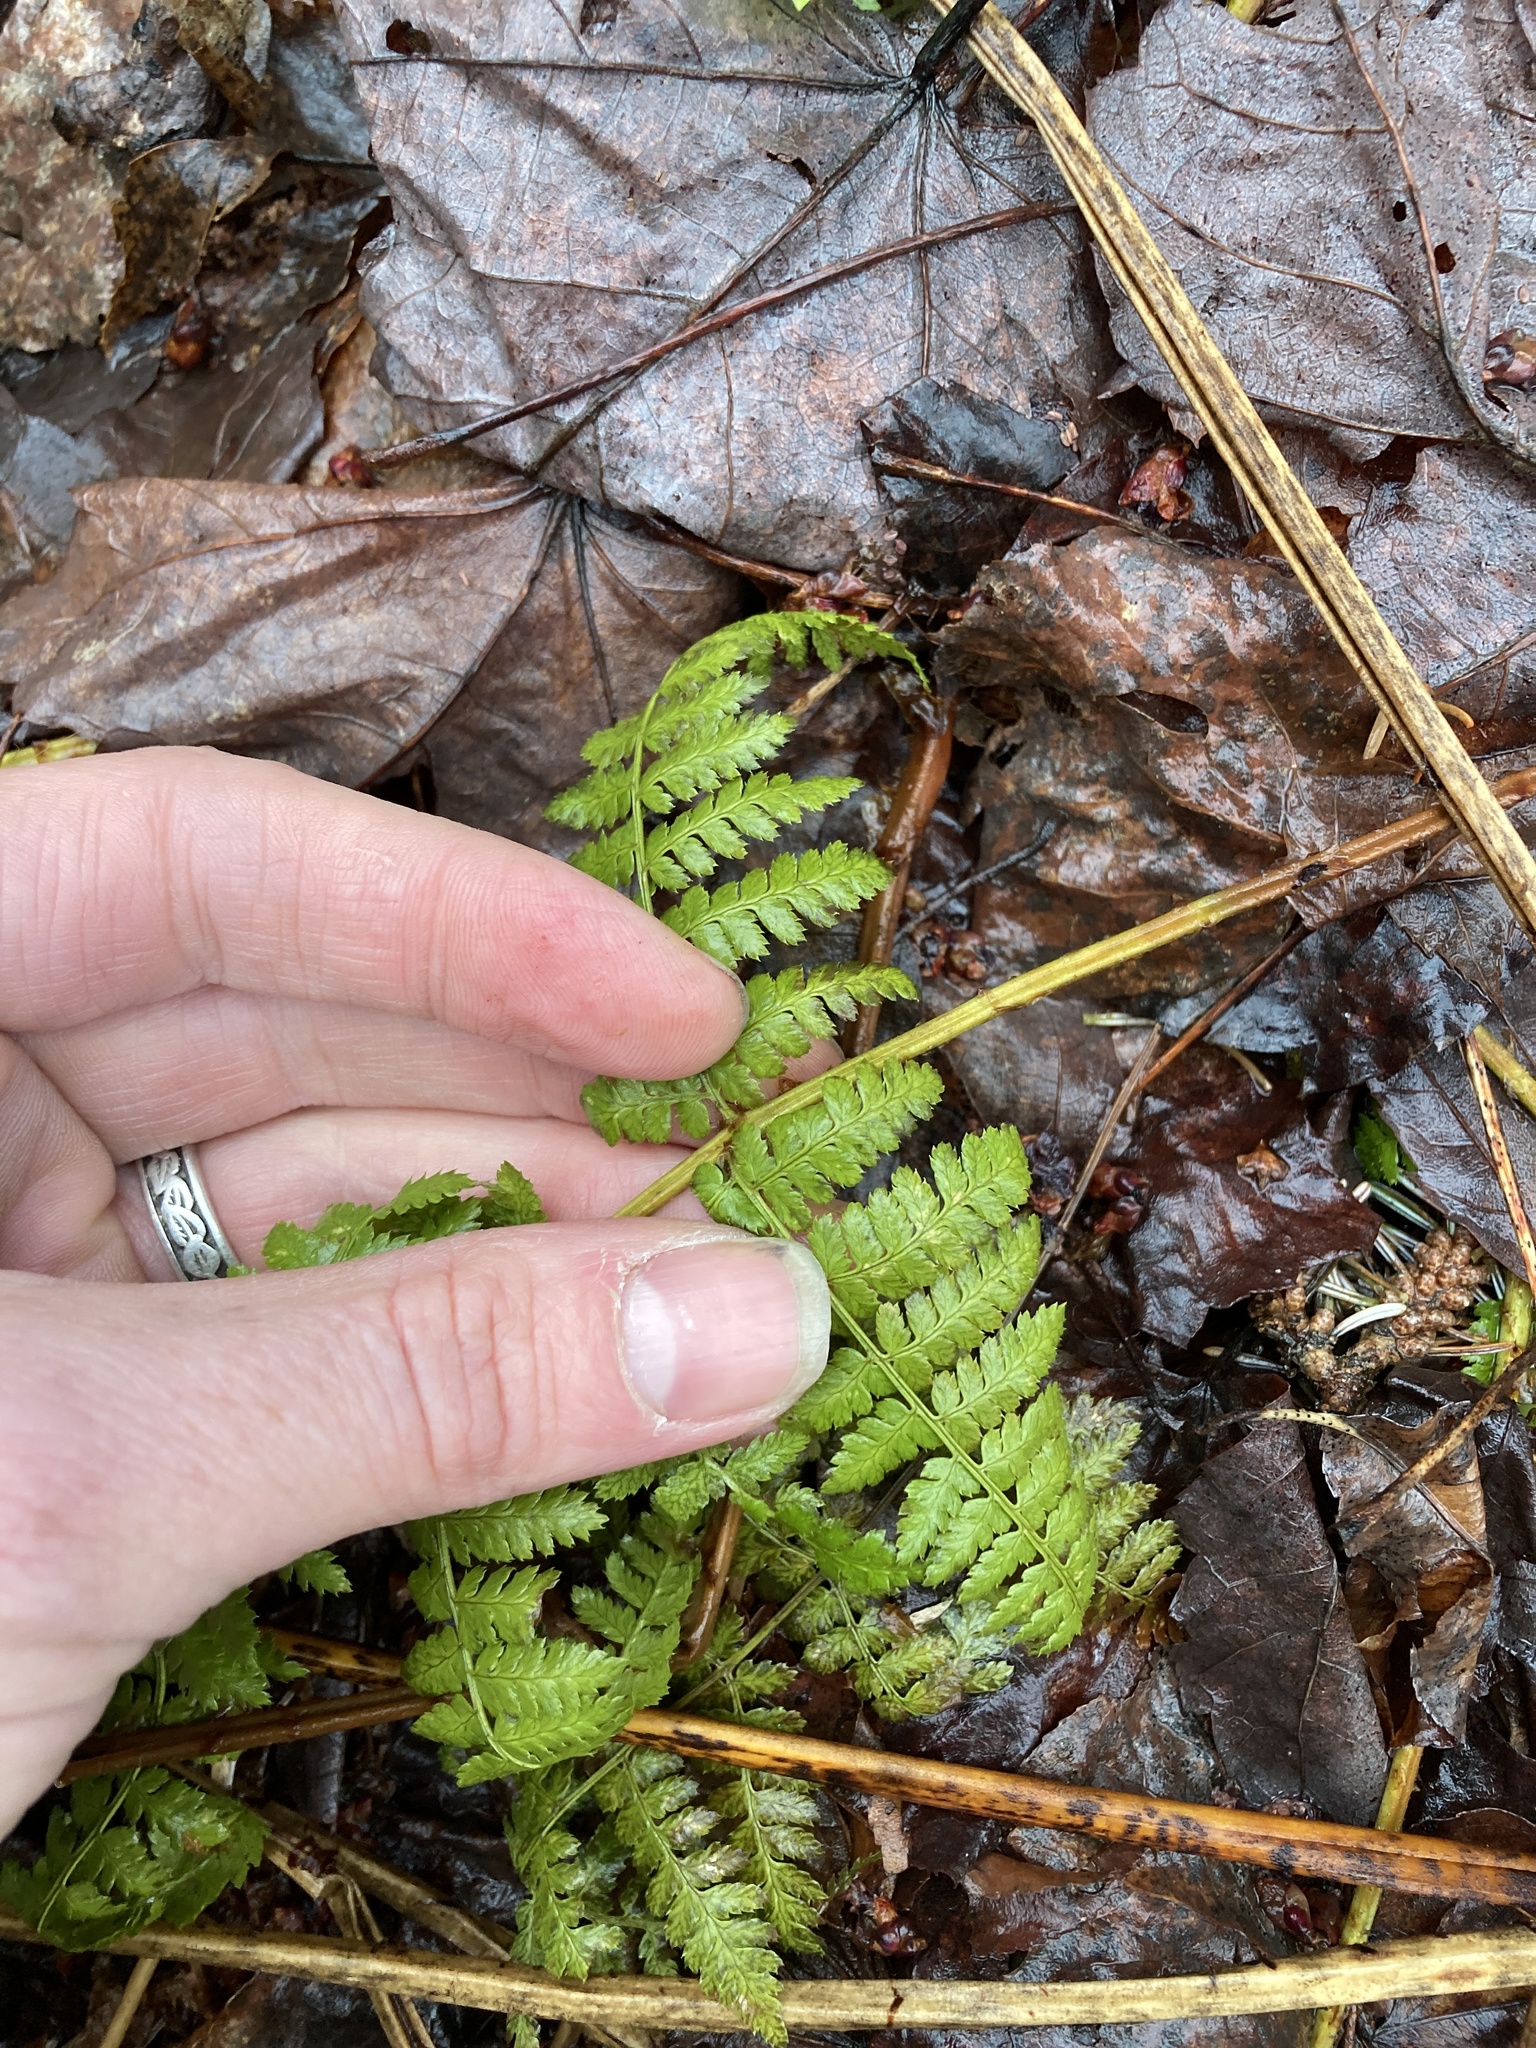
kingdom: Plantae
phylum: Tracheophyta
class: Polypodiopsida
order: Polypodiales
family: Dryopteridaceae
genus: Dryopteris
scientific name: Dryopteris intermedia
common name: Evergreen wood fern
